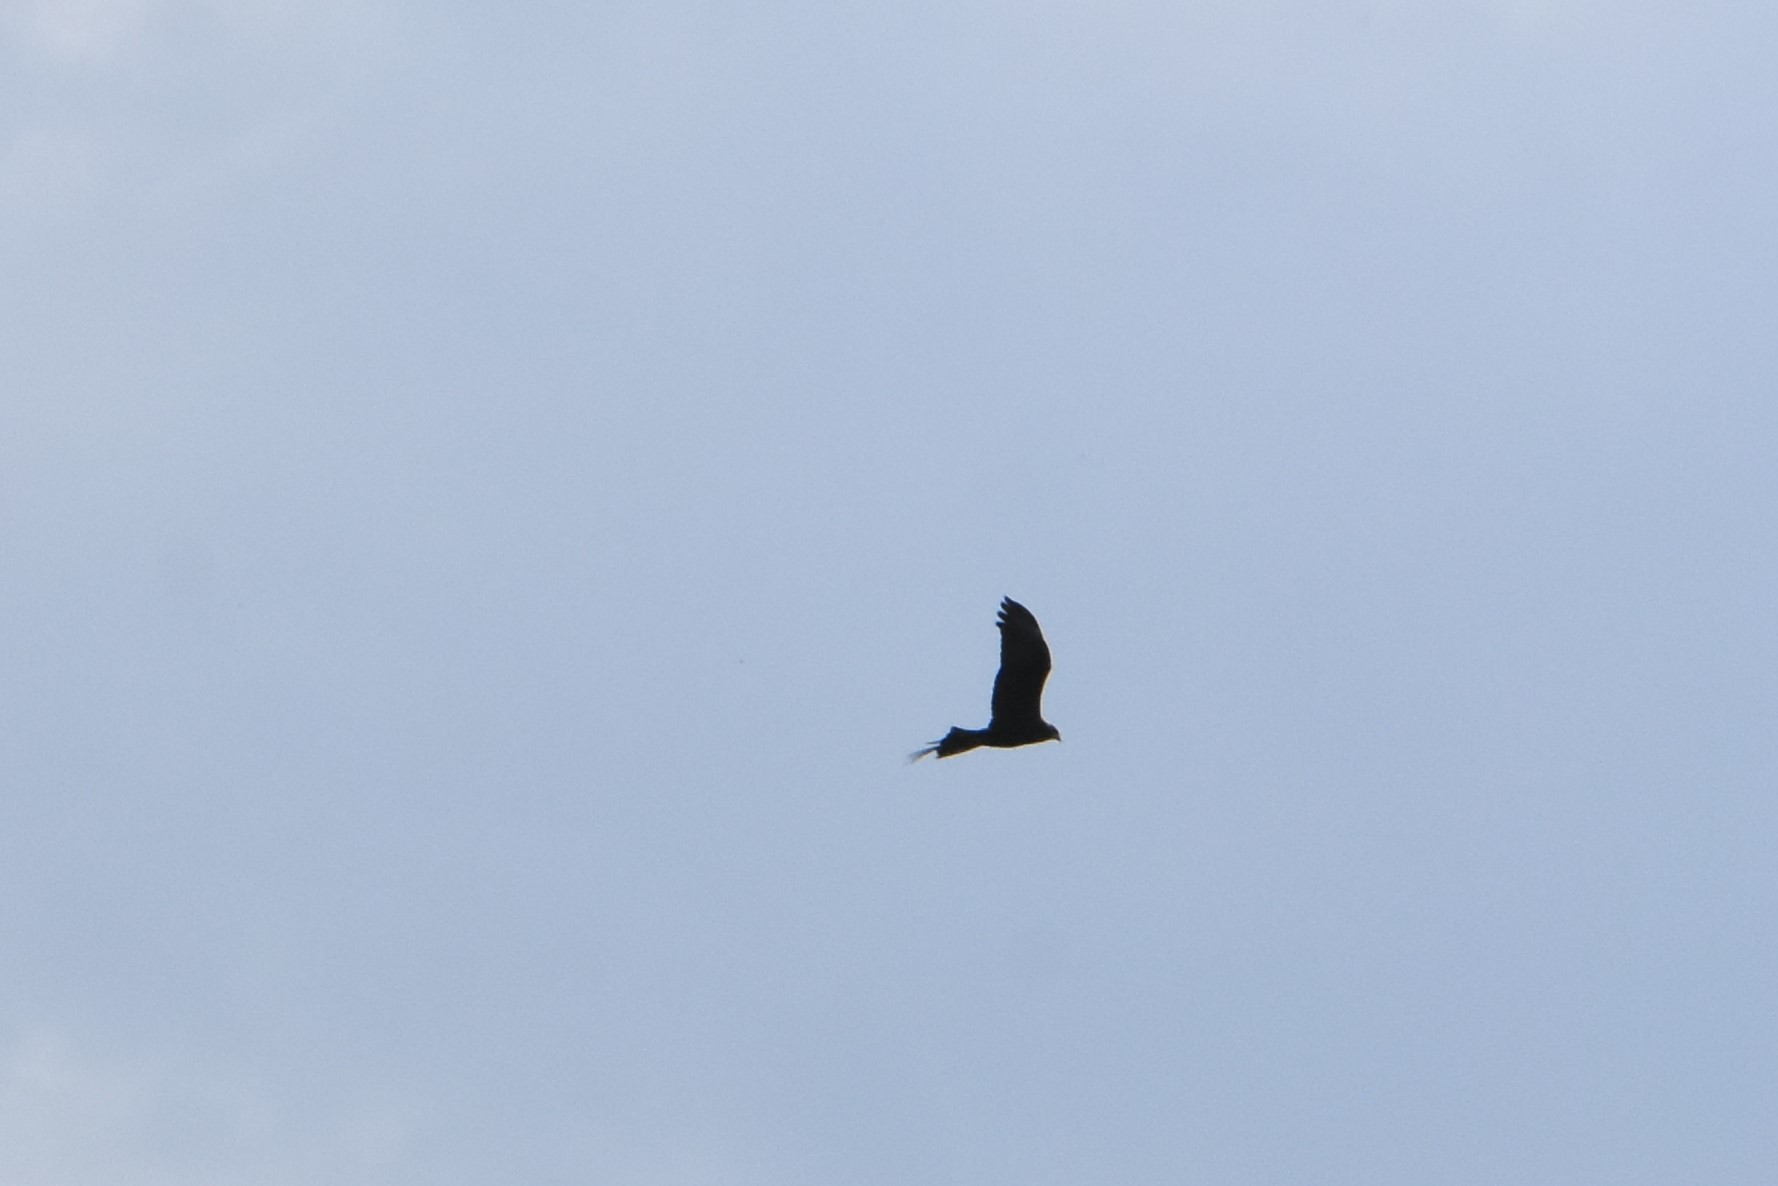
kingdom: Animalia
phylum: Chordata
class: Aves
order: Accipitriformes
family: Accipitridae
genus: Circus
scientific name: Circus aeruginosus
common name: Western marsh harrier
